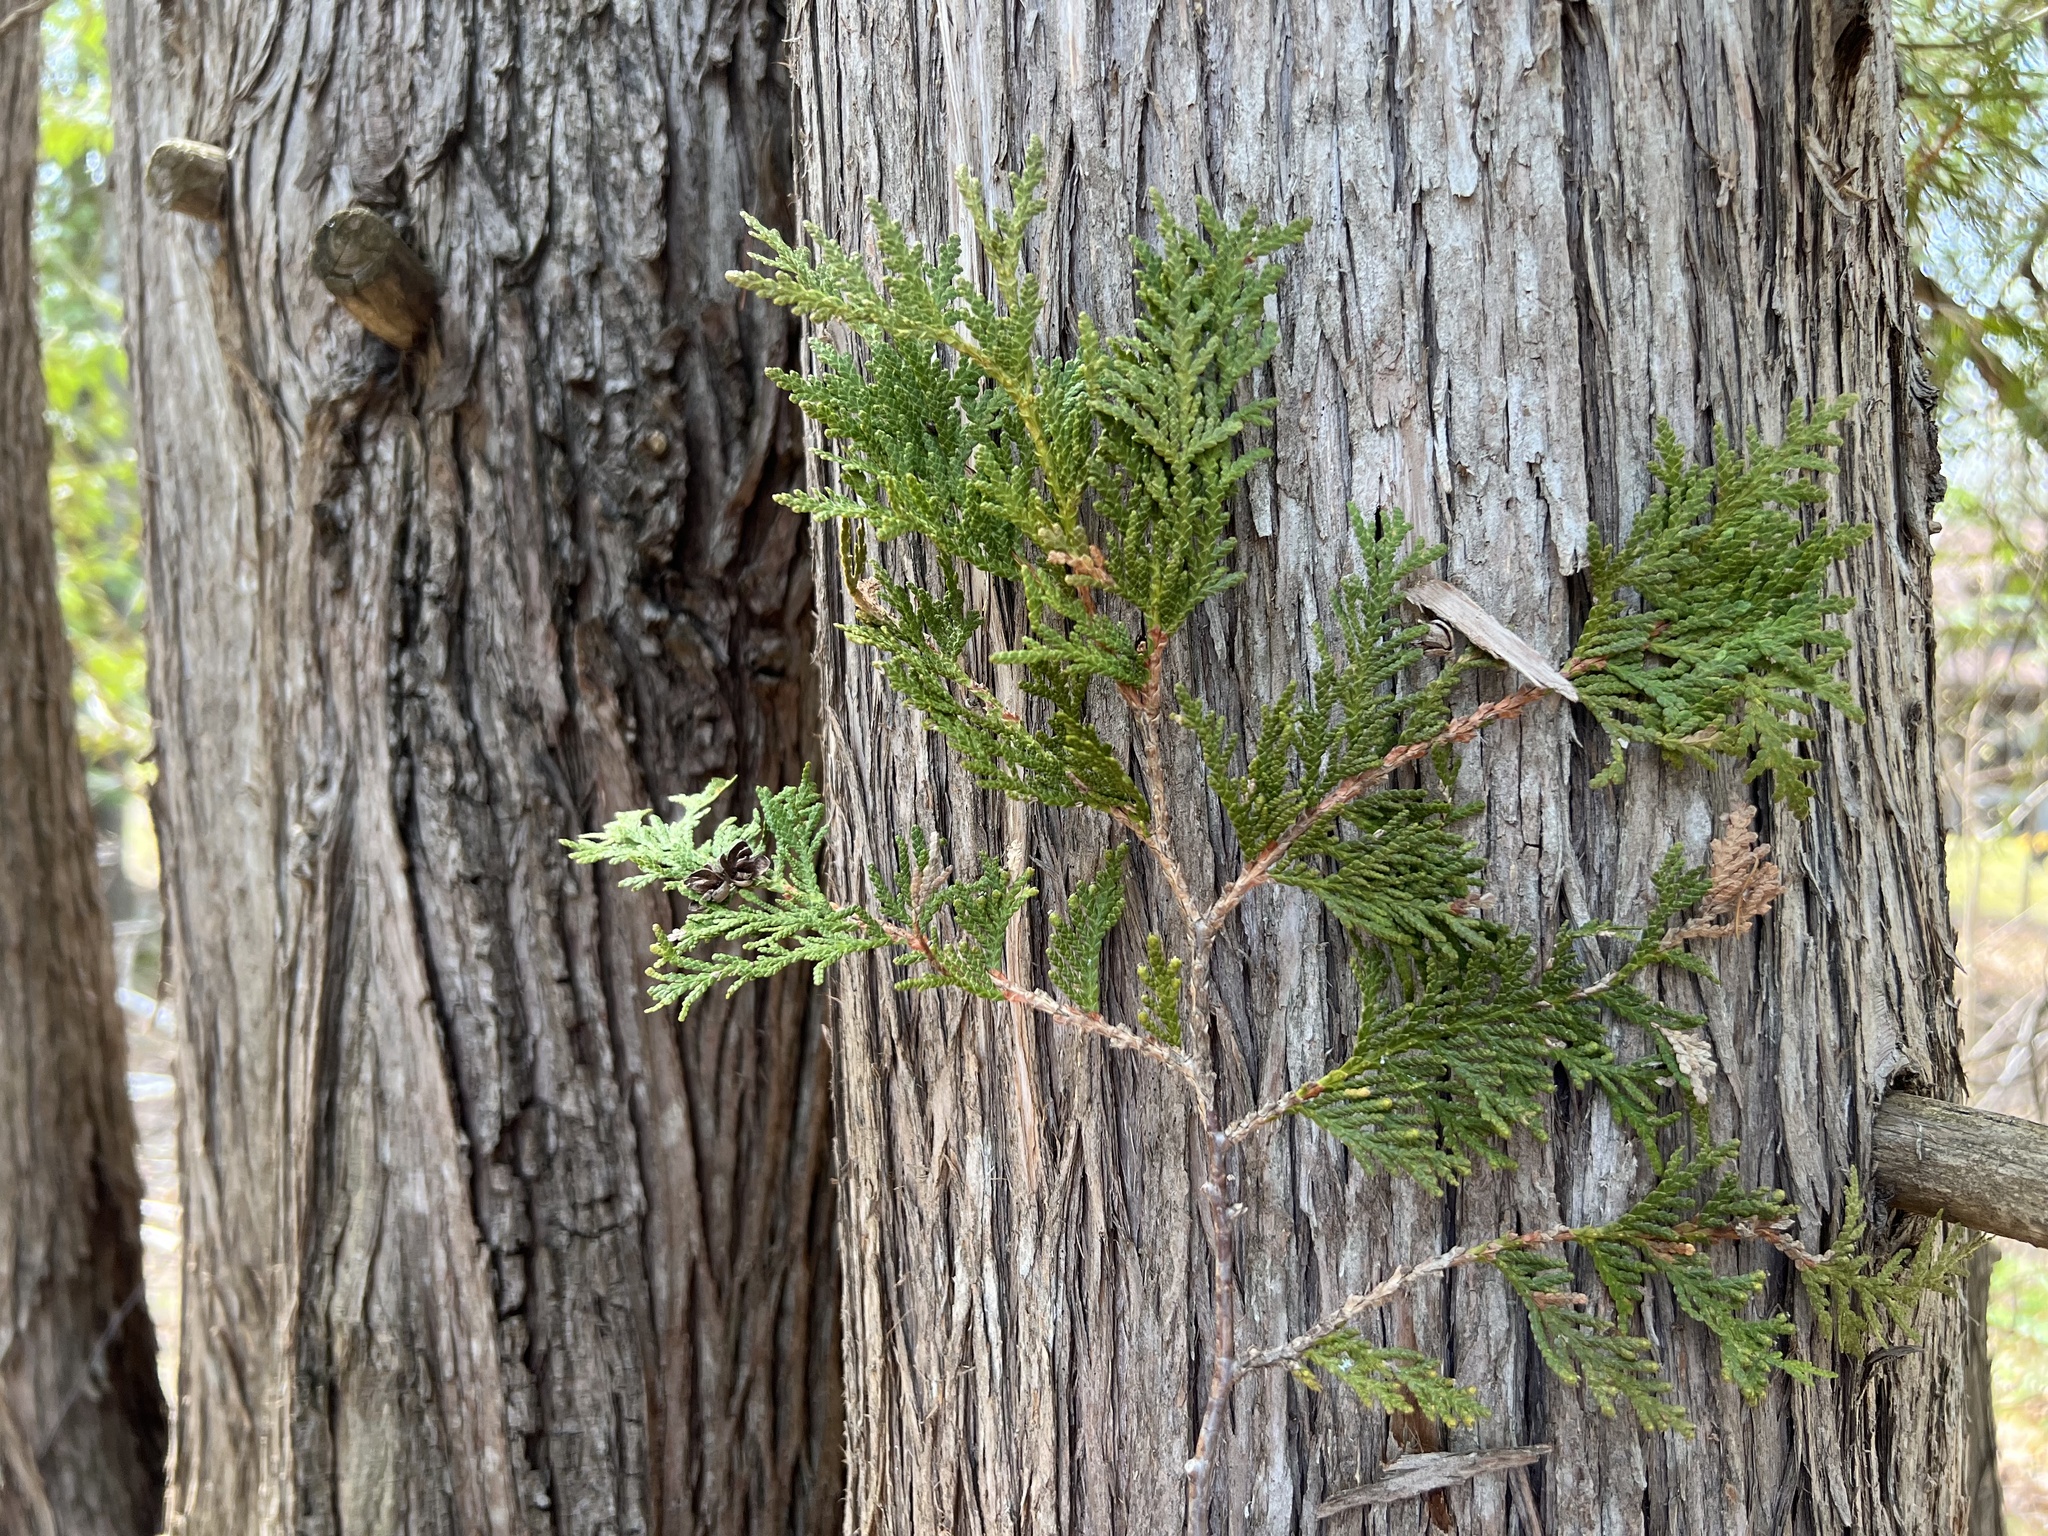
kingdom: Plantae
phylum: Tracheophyta
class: Pinopsida
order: Pinales
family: Cupressaceae
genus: Thuja
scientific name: Thuja occidentalis
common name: Northern white-cedar
